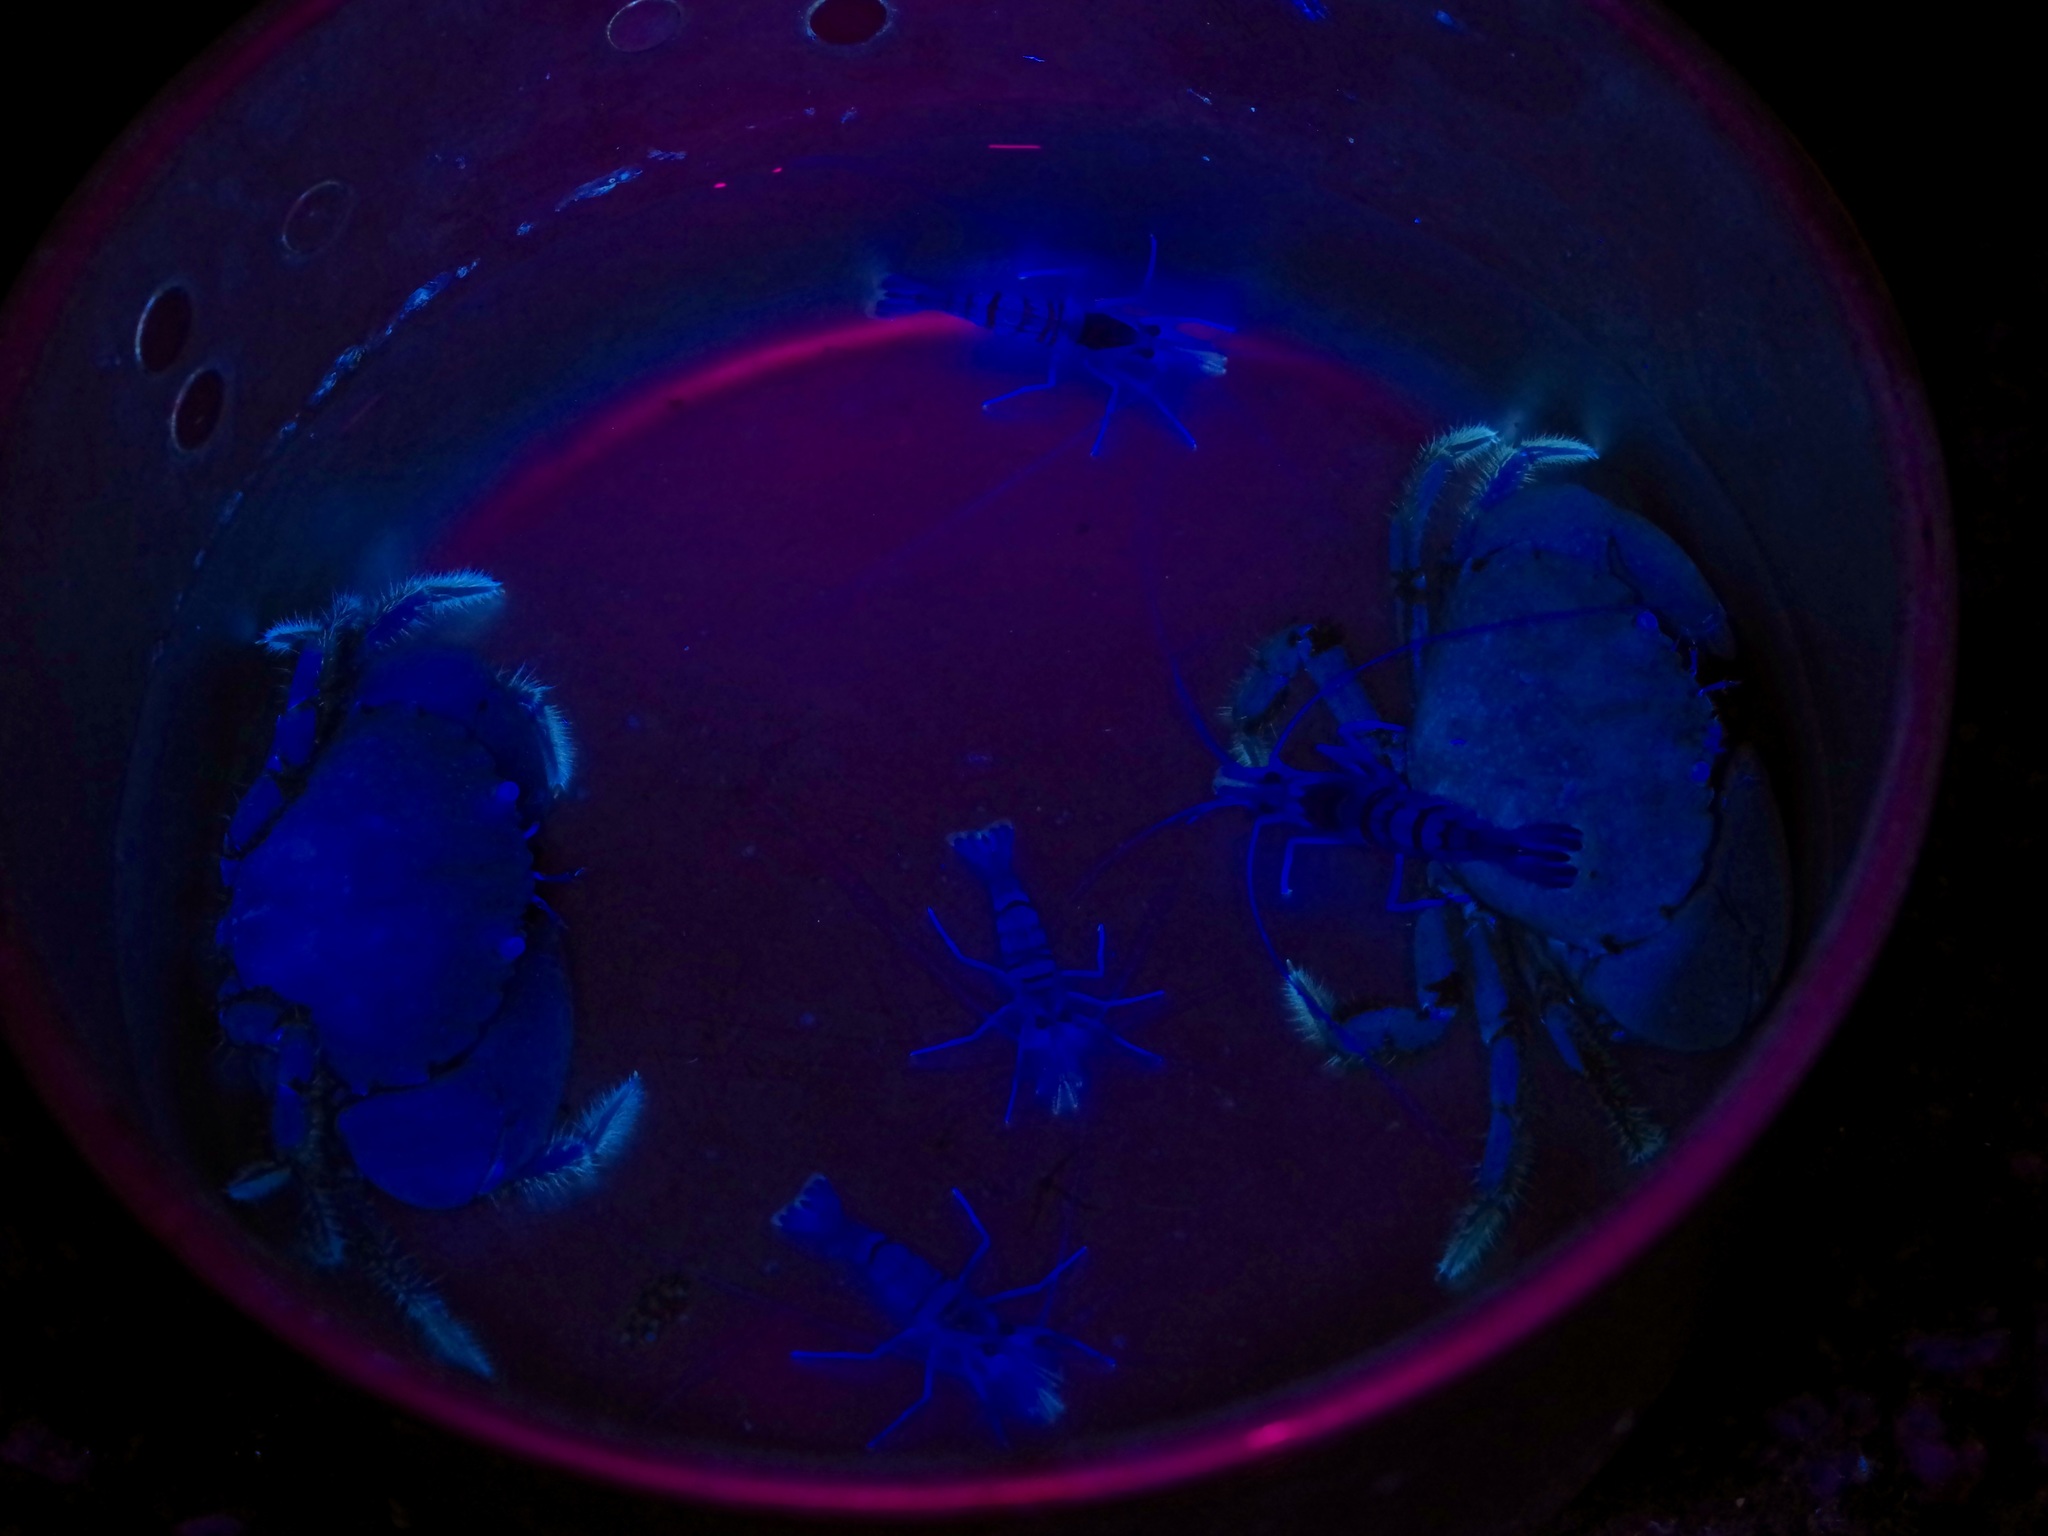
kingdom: Animalia
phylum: Arthropoda
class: Malacostraca
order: Decapoda
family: Menippidae
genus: Menippe
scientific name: Menippe adina
